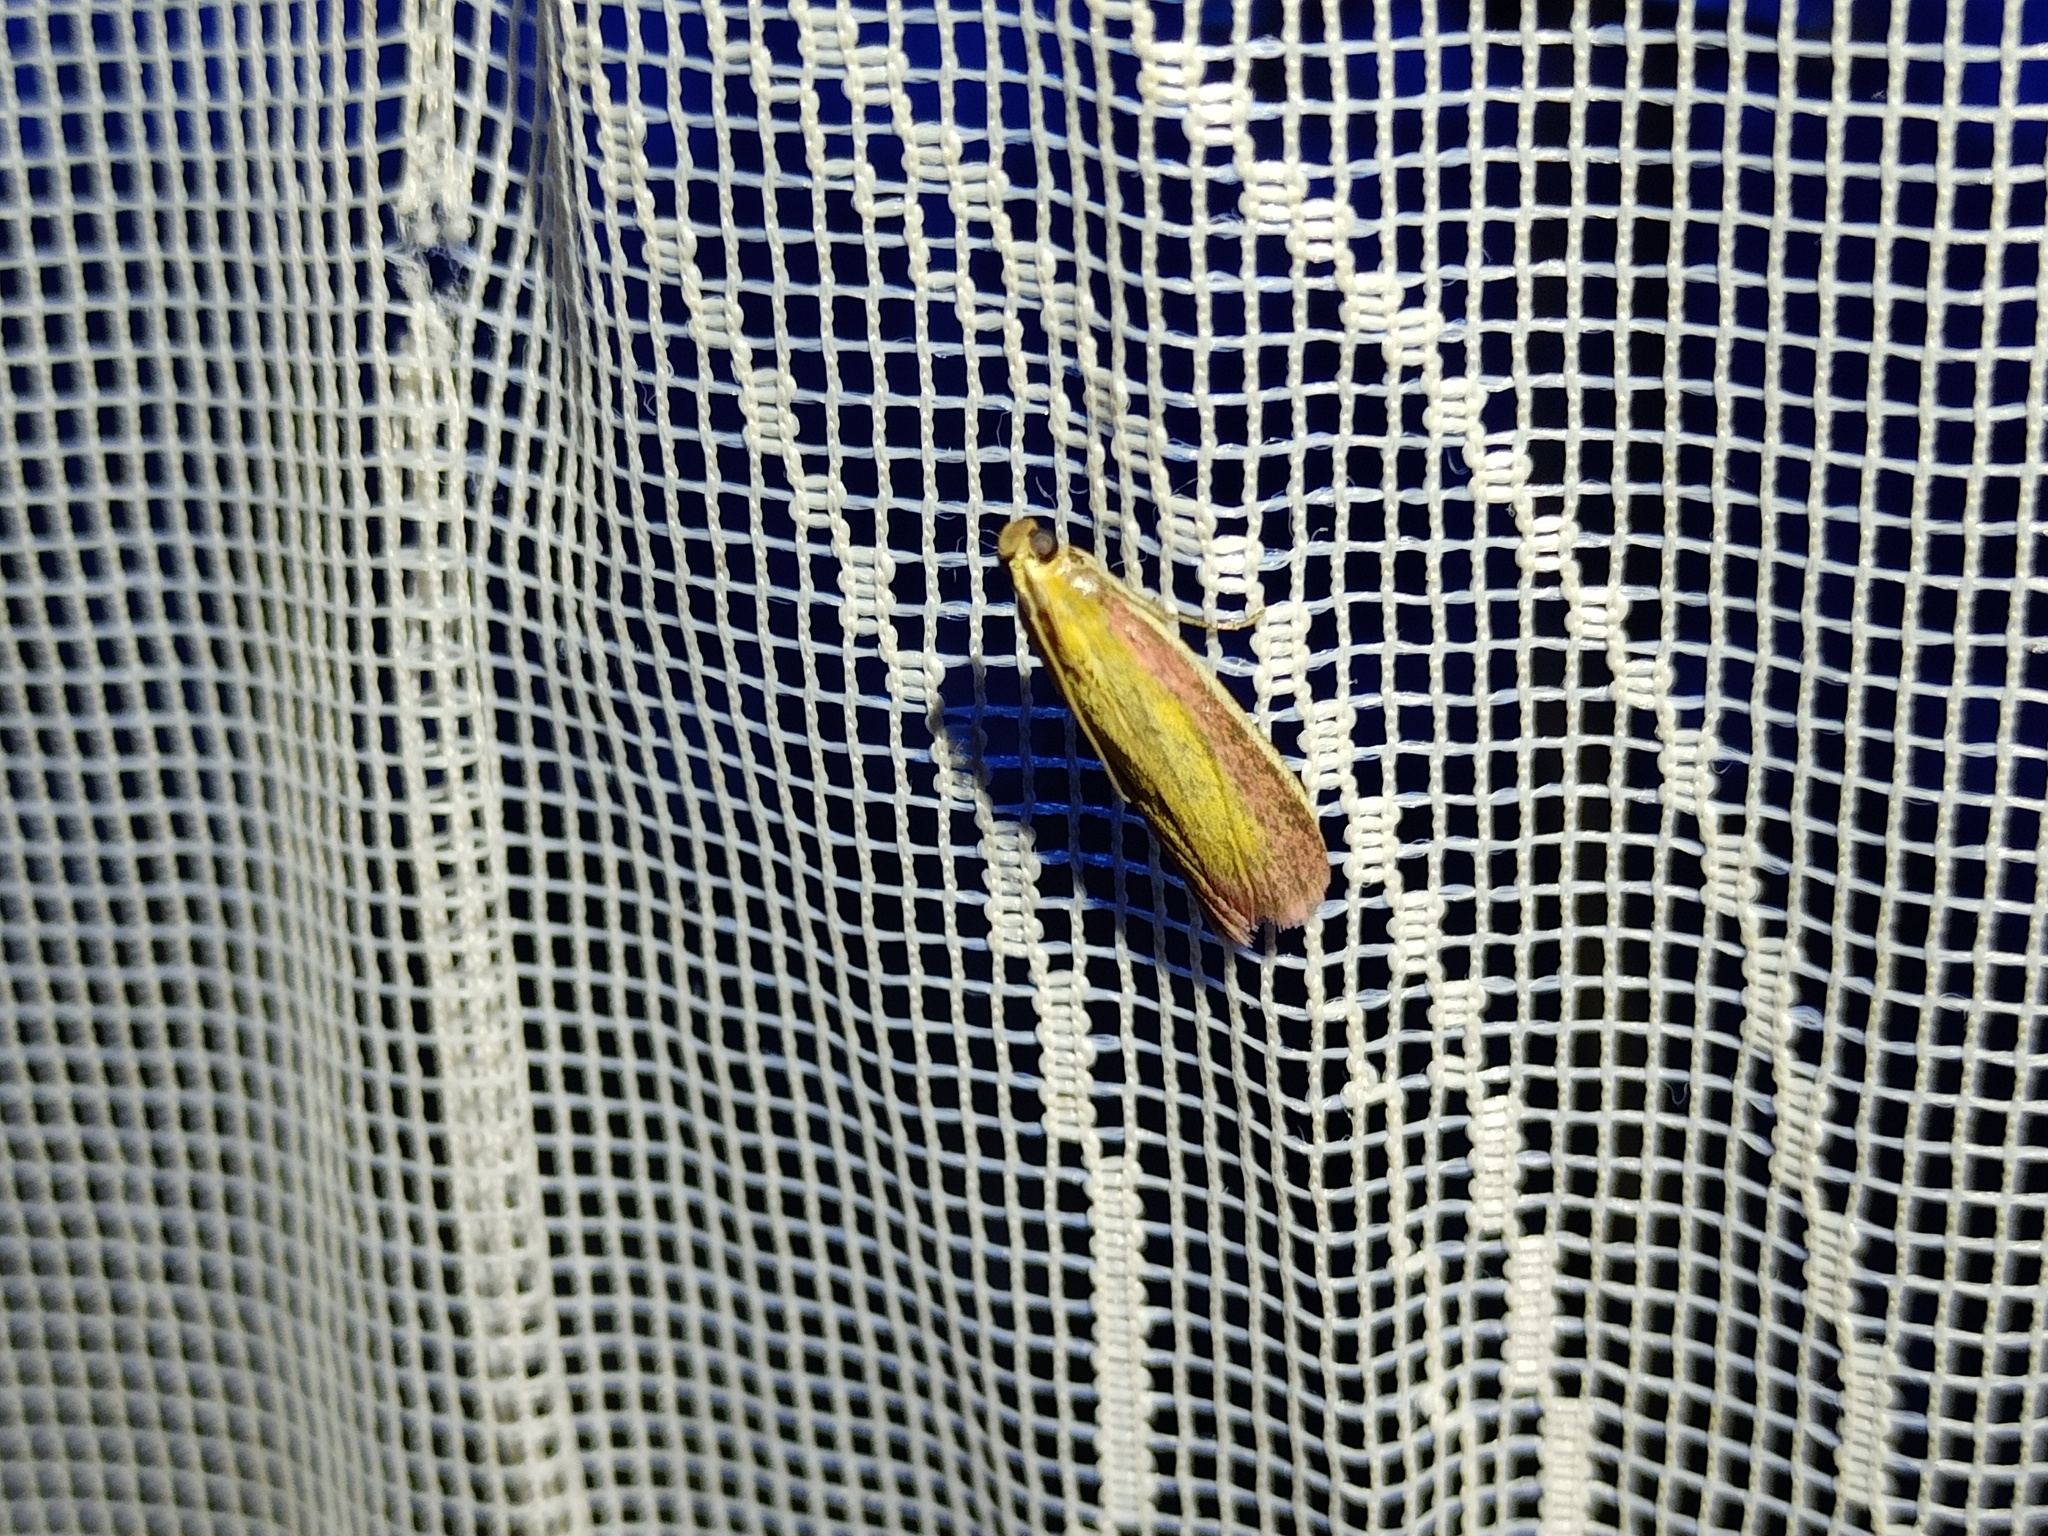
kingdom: Animalia
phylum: Arthropoda
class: Insecta
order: Lepidoptera
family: Pyralidae
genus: Oncocera
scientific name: Oncocera semirubella
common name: Rosy-striped knot-horn
